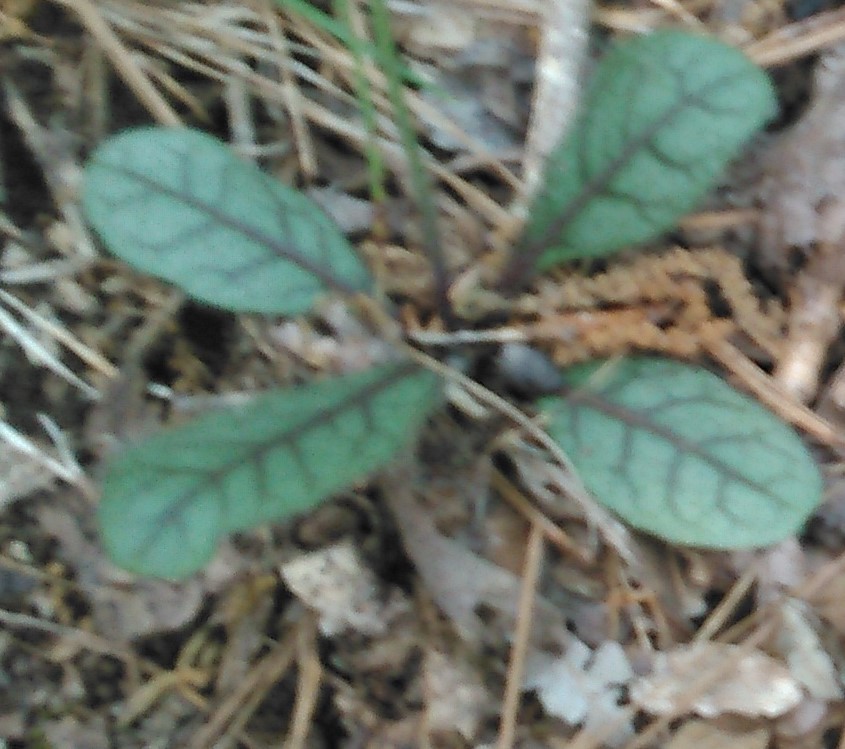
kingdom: Plantae
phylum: Tracheophyta
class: Magnoliopsida
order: Asterales
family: Asteraceae
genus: Hieracium
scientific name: Hieracium venosum
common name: Rattlesnake hawkweed
